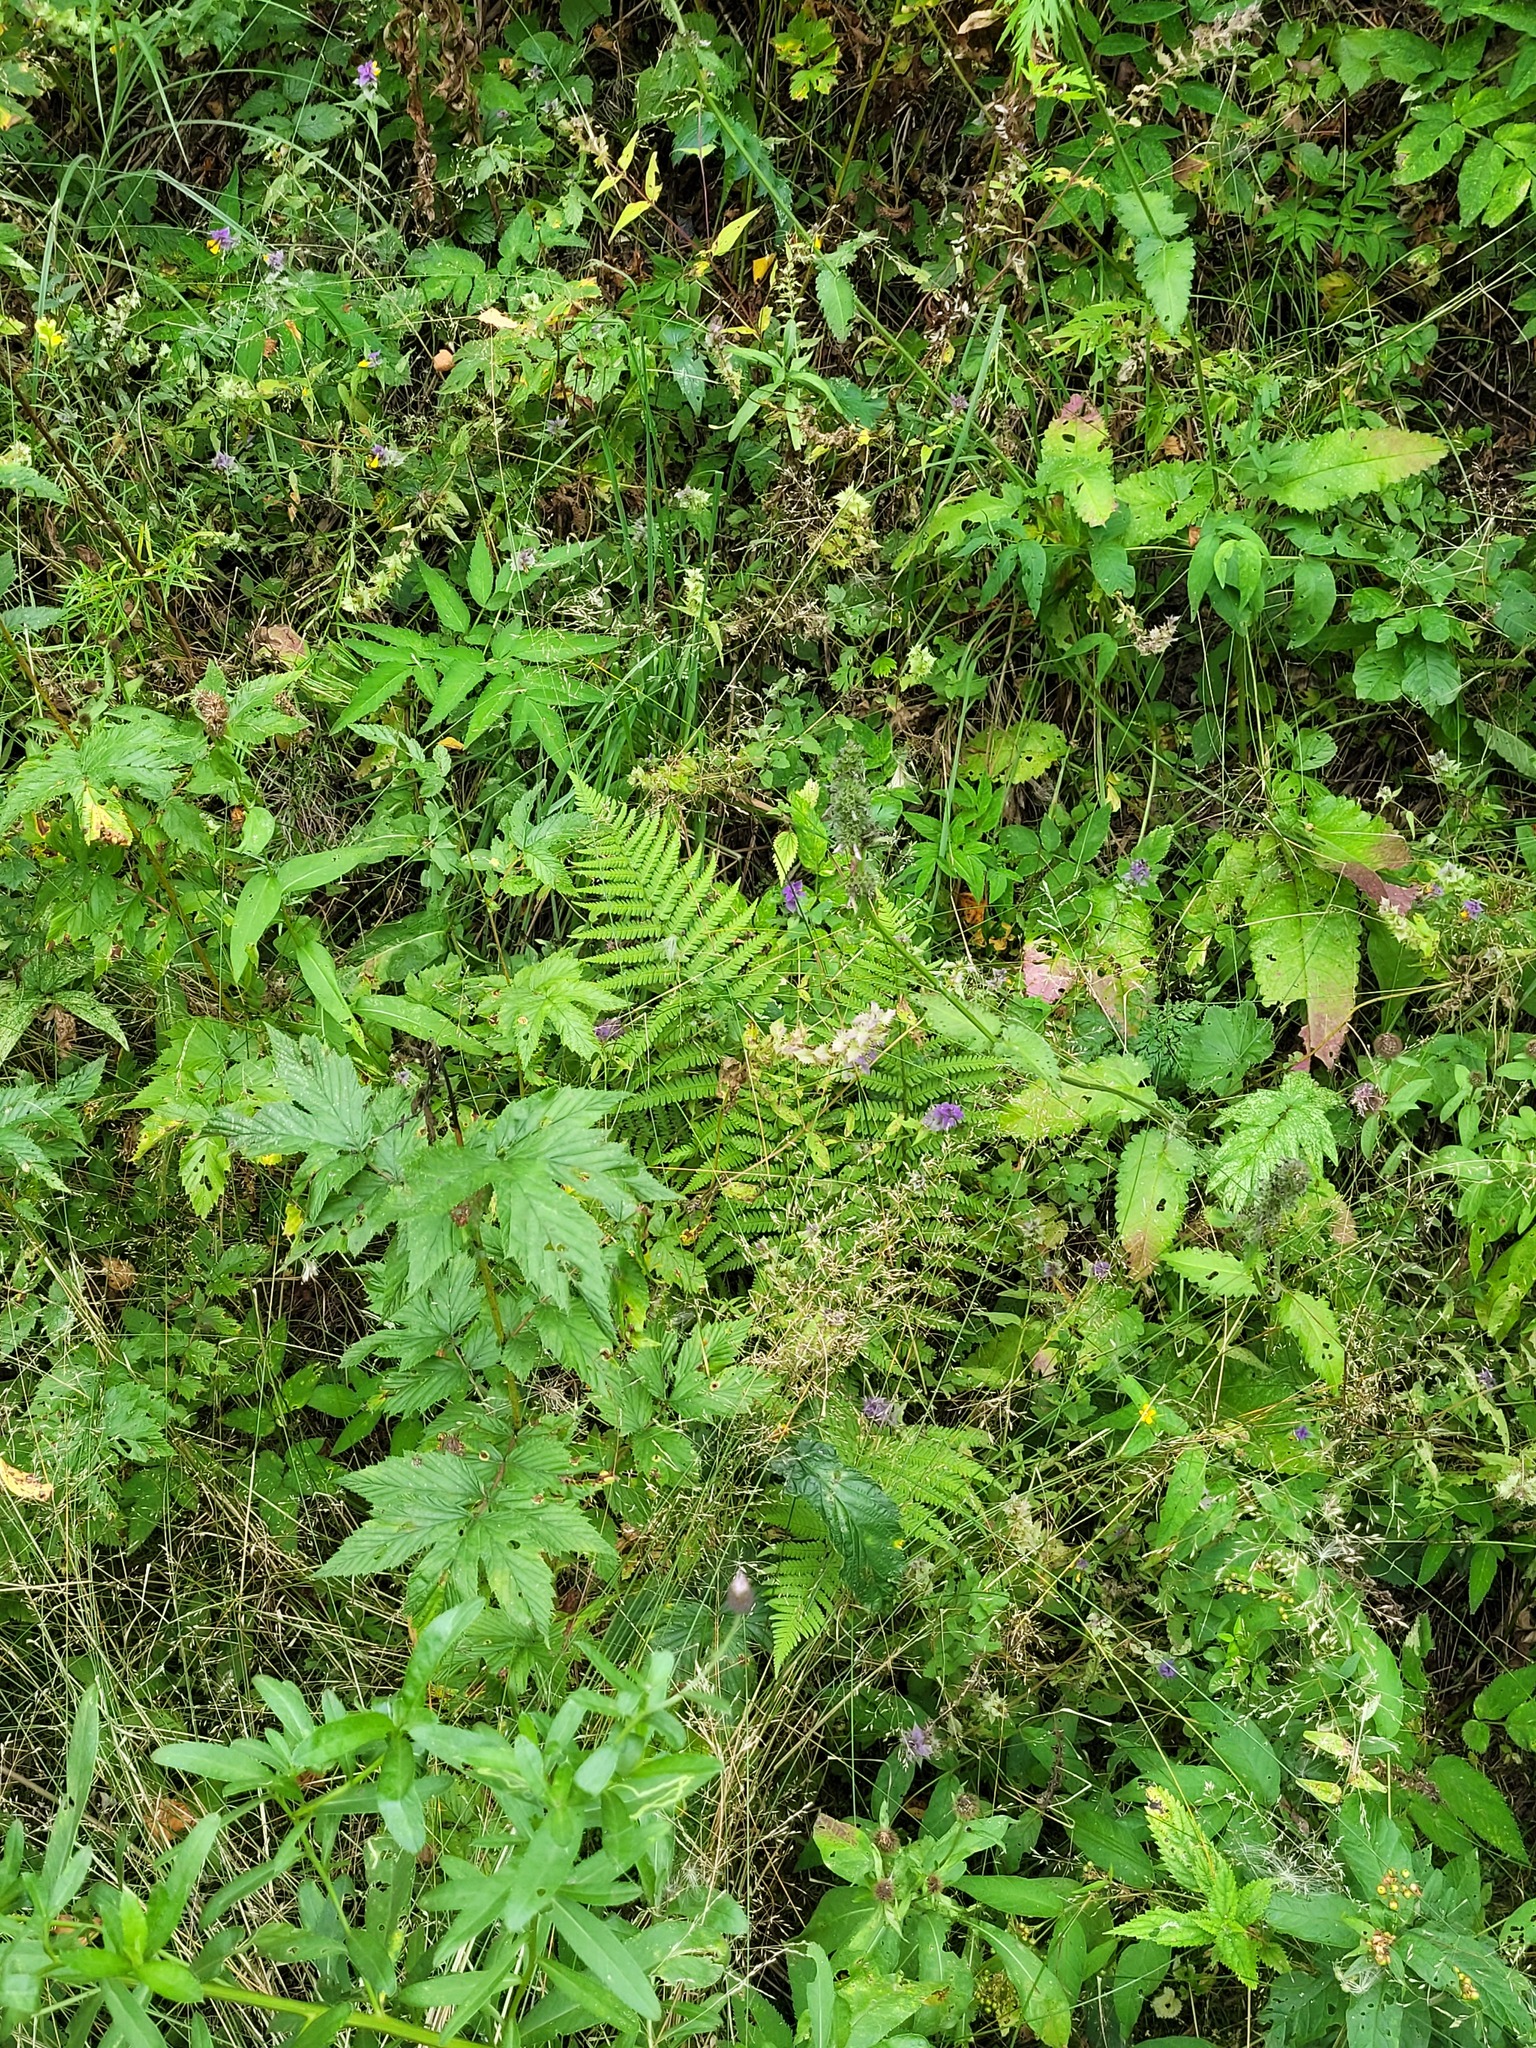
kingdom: Plantae
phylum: Tracheophyta
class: Polypodiopsida
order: Polypodiales
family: Dryopteridaceae
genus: Dryopteris
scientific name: Dryopteris filix-mas
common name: Male fern
